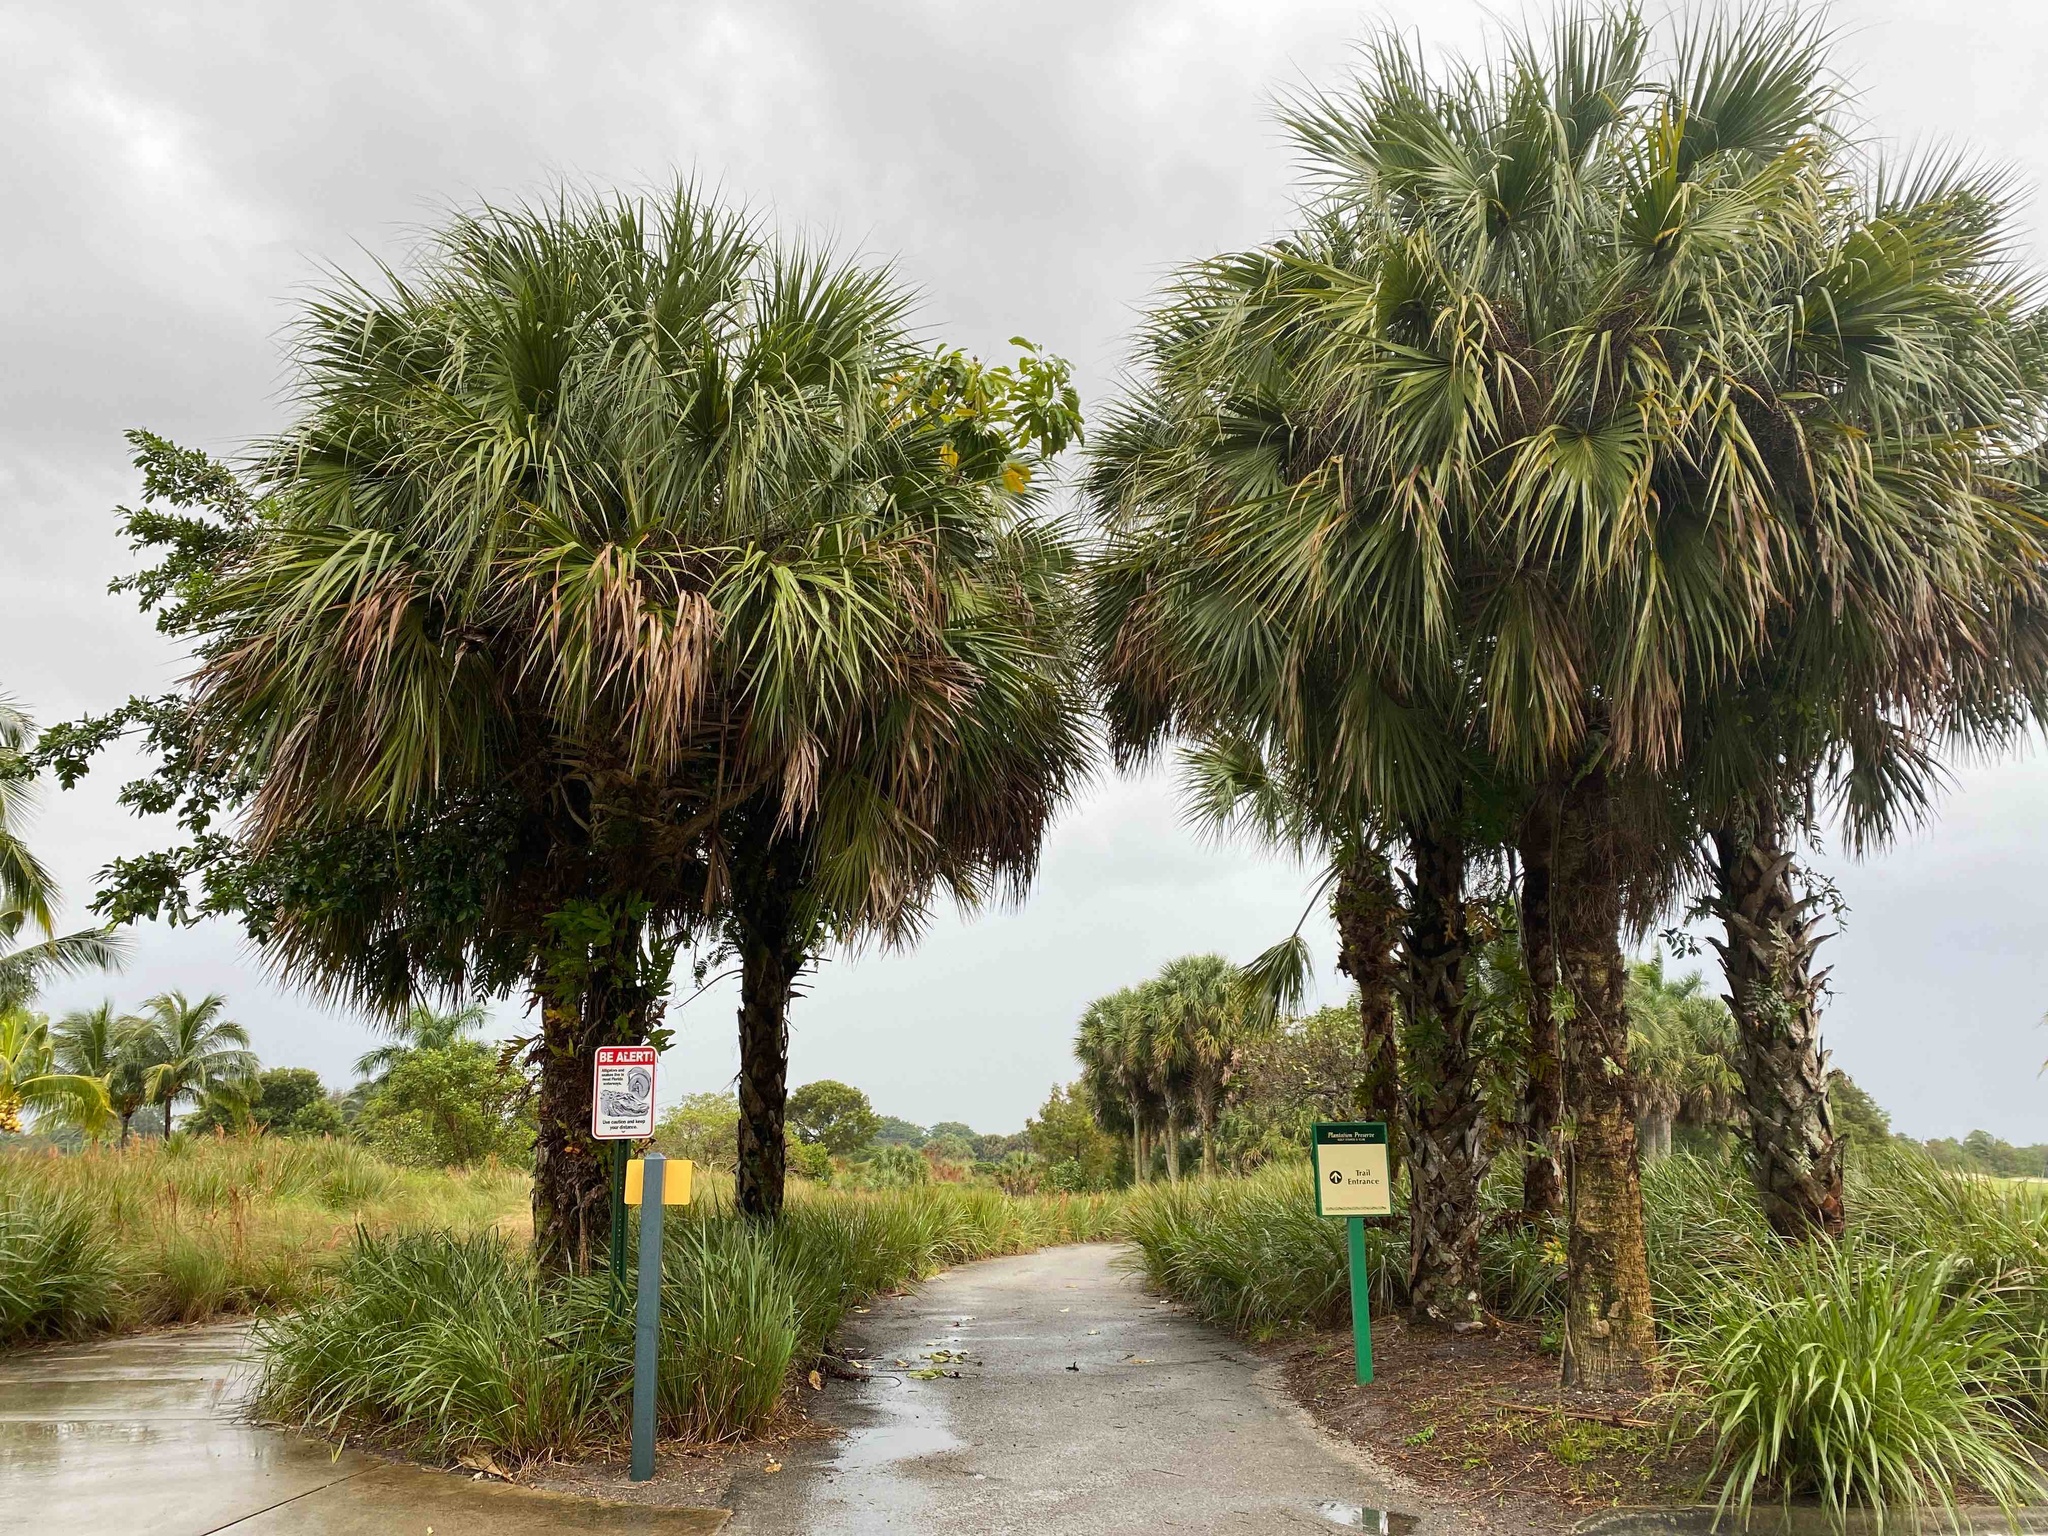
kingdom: Plantae
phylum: Tracheophyta
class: Liliopsida
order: Arecales
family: Arecaceae
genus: Sabal
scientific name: Sabal palmetto
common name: Blue palmetto
